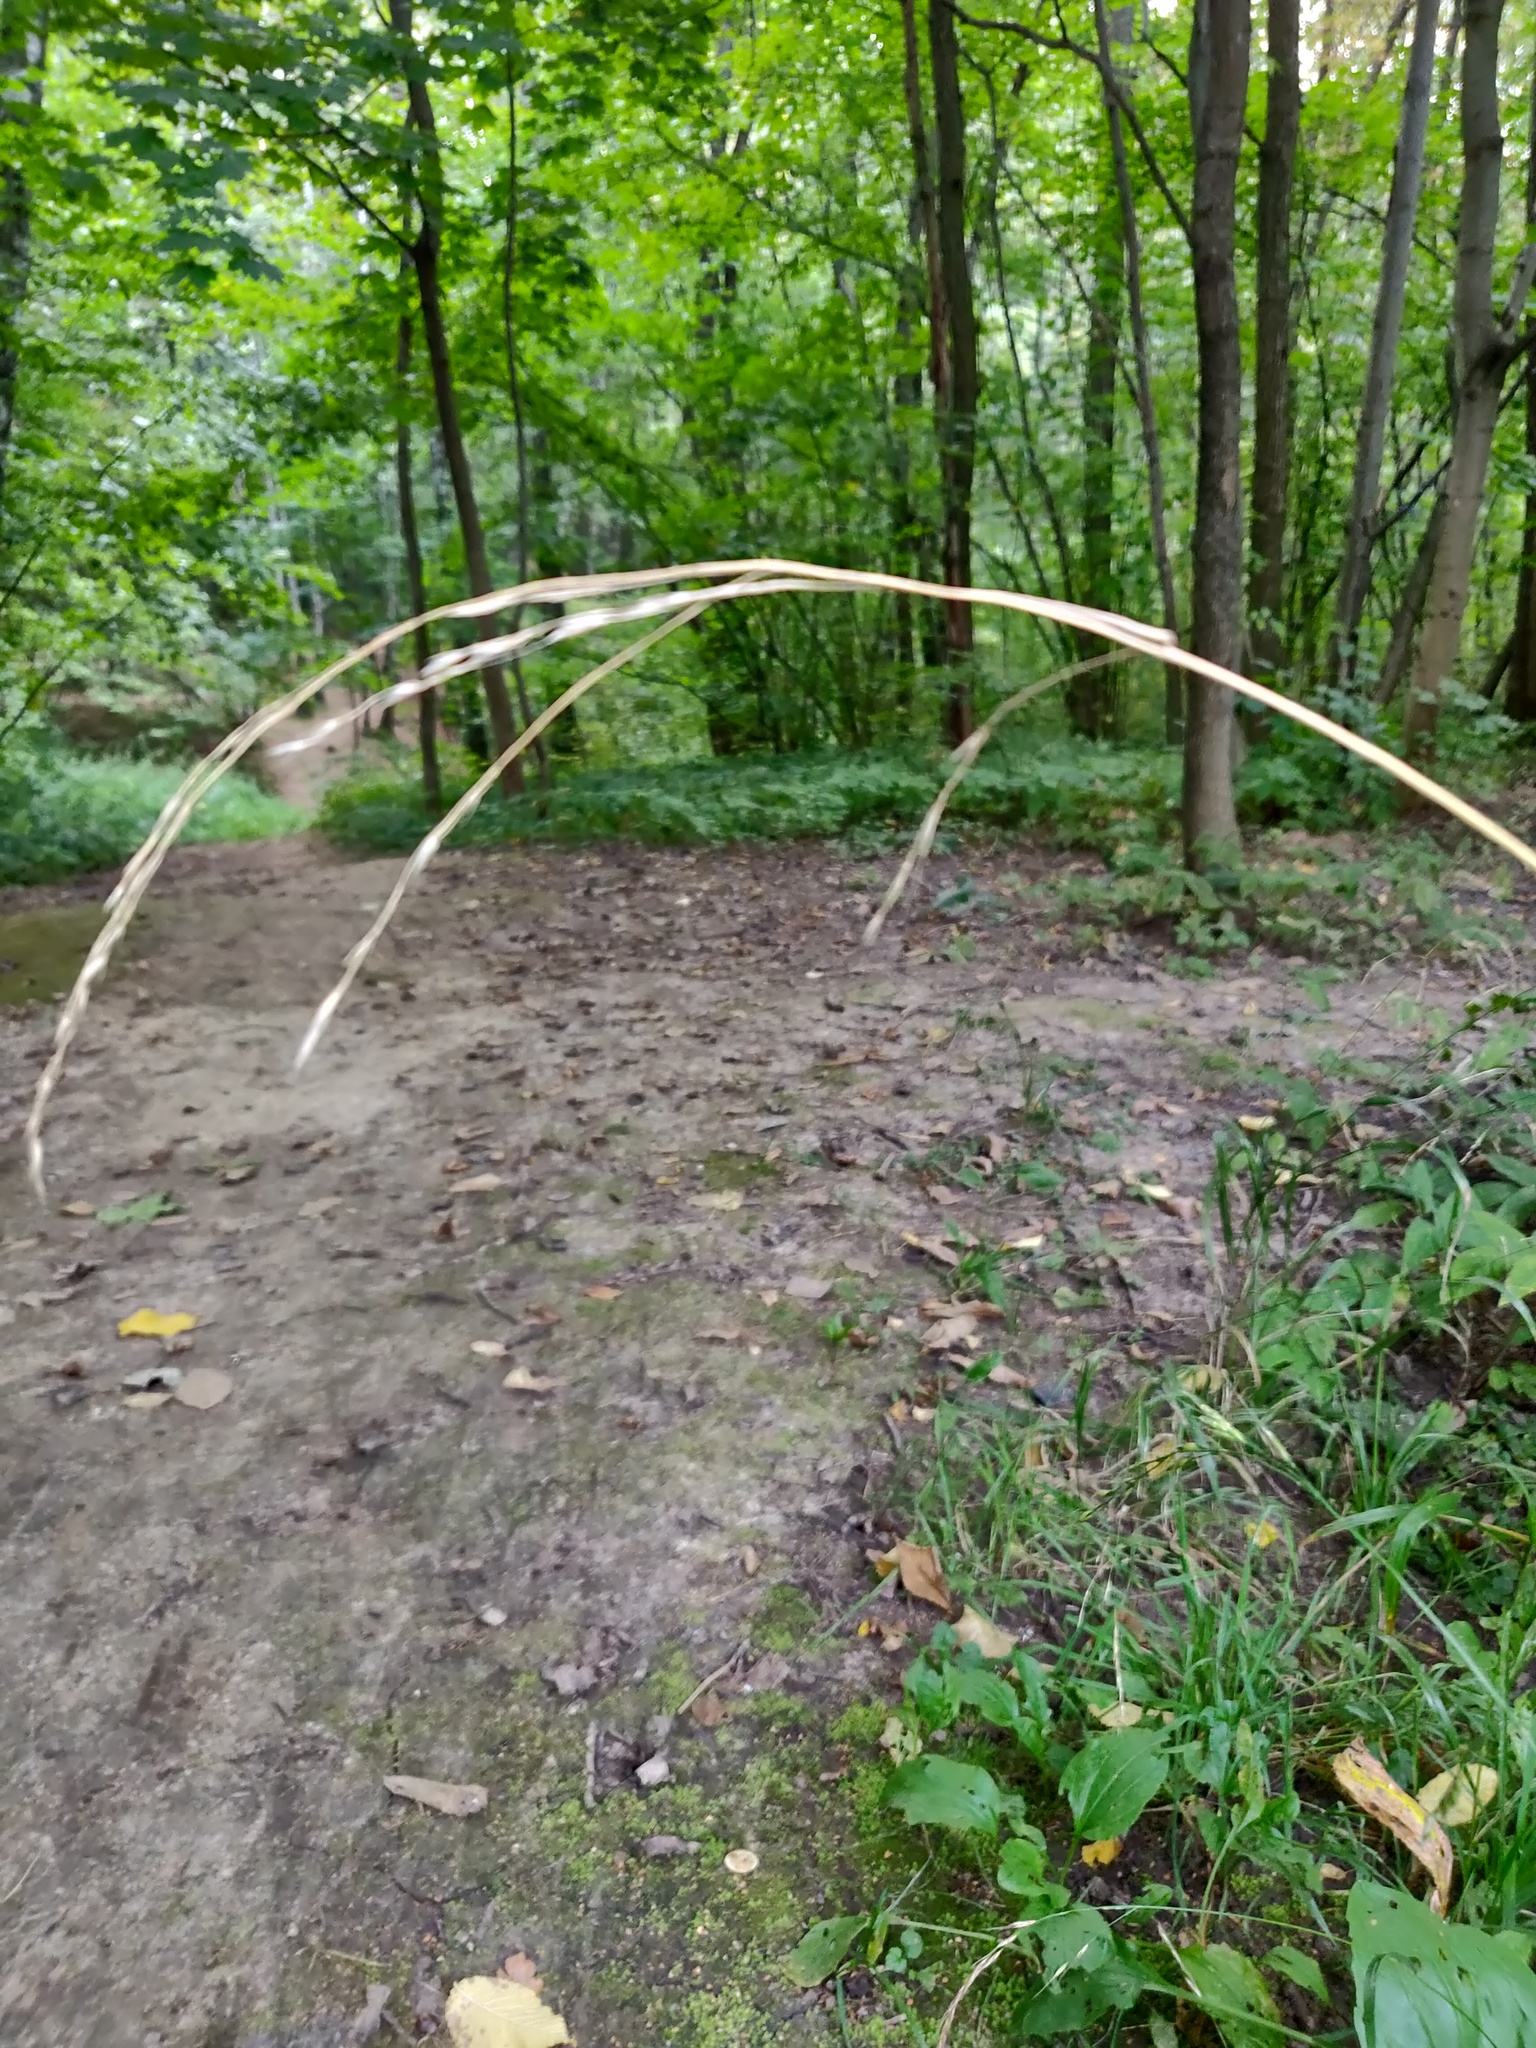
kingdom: Plantae
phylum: Tracheophyta
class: Liliopsida
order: Poales
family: Poaceae
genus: Lolium
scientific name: Lolium giganteum
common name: Giant fescue
